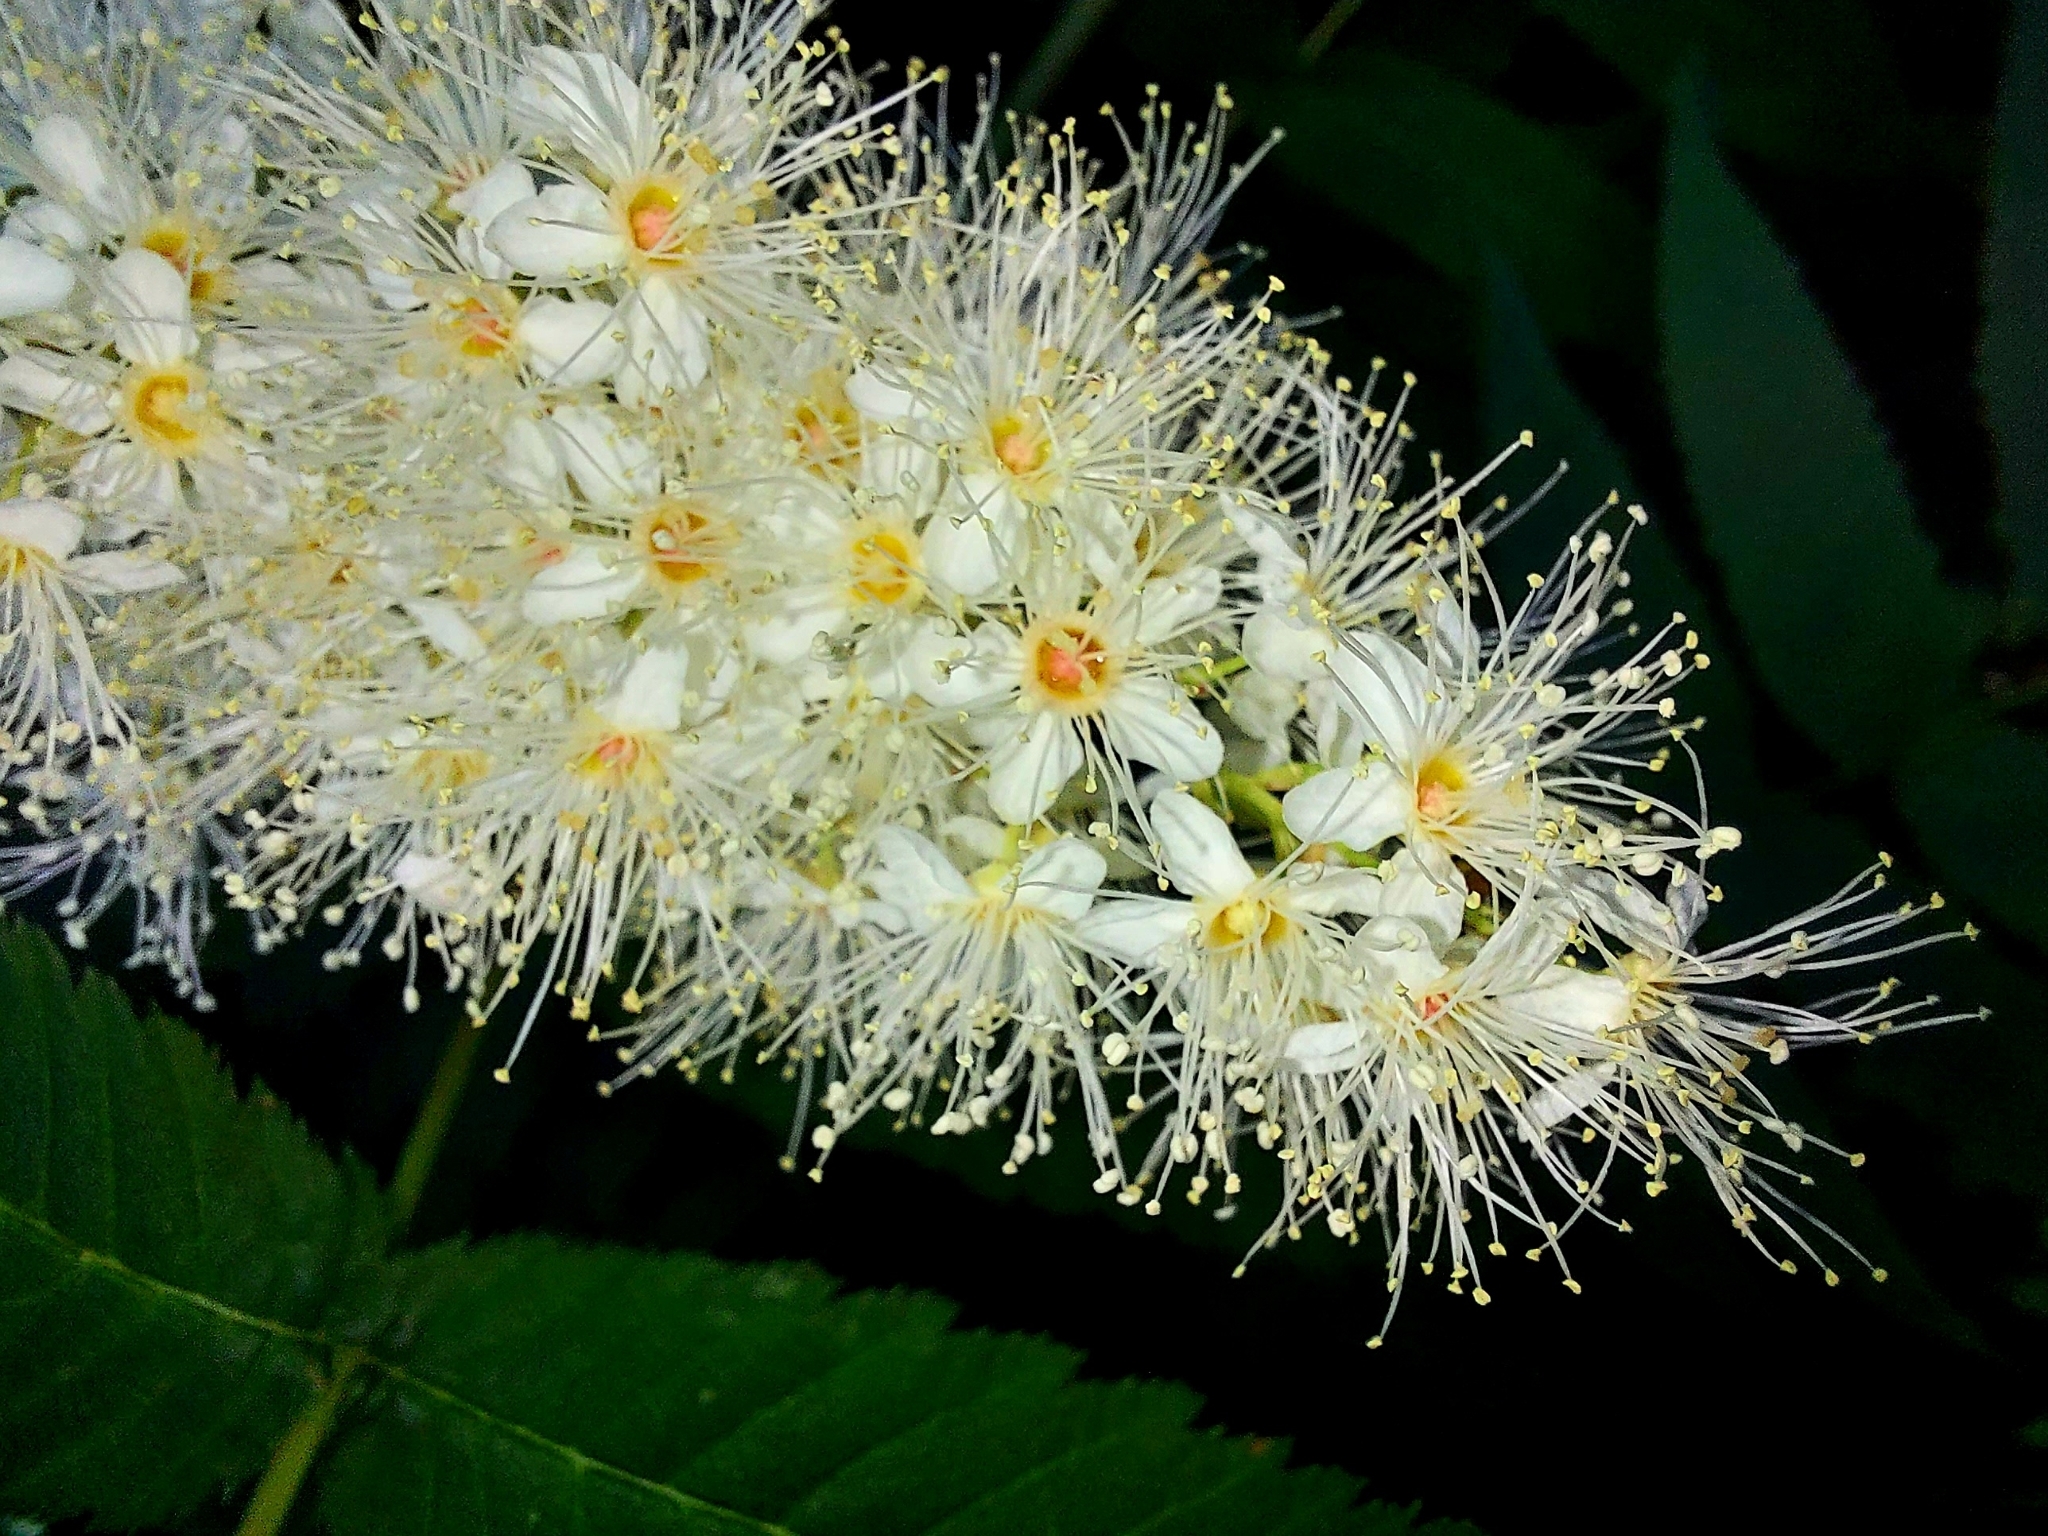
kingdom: Plantae
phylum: Tracheophyta
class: Magnoliopsida
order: Rosales
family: Rosaceae
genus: Sorbaria
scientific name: Sorbaria sorbifolia
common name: False spiraea
